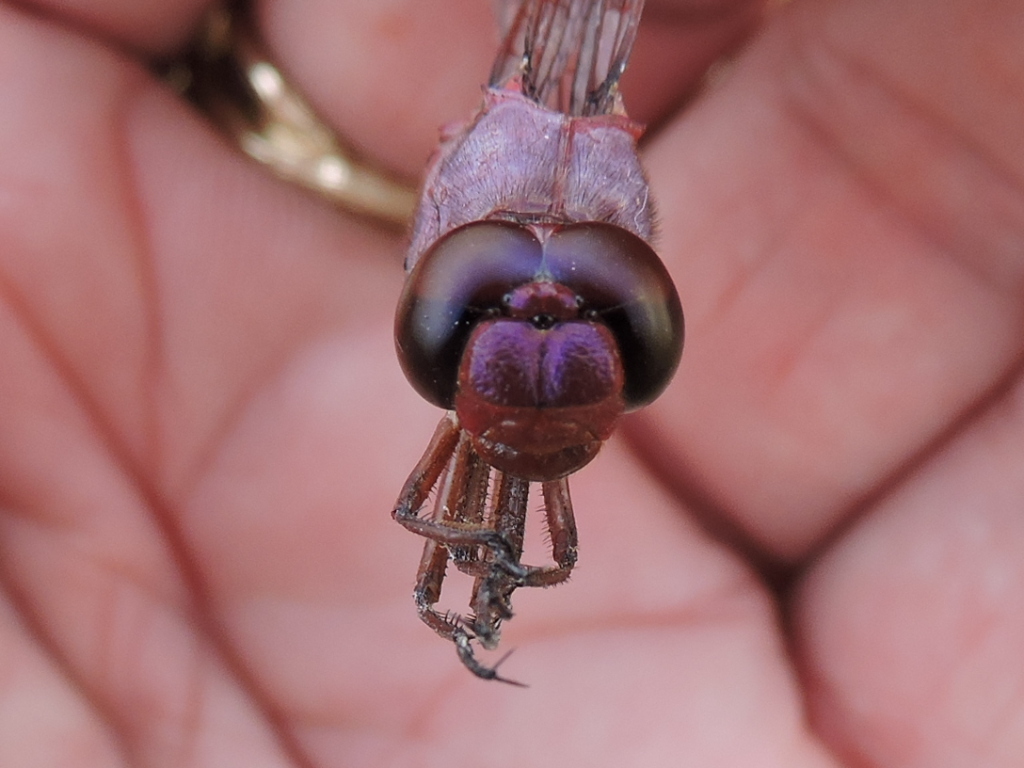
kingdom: Animalia
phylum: Arthropoda
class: Insecta
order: Odonata
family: Libellulidae
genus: Orthemis
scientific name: Orthemis ferruginea
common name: Roseate skimmer
